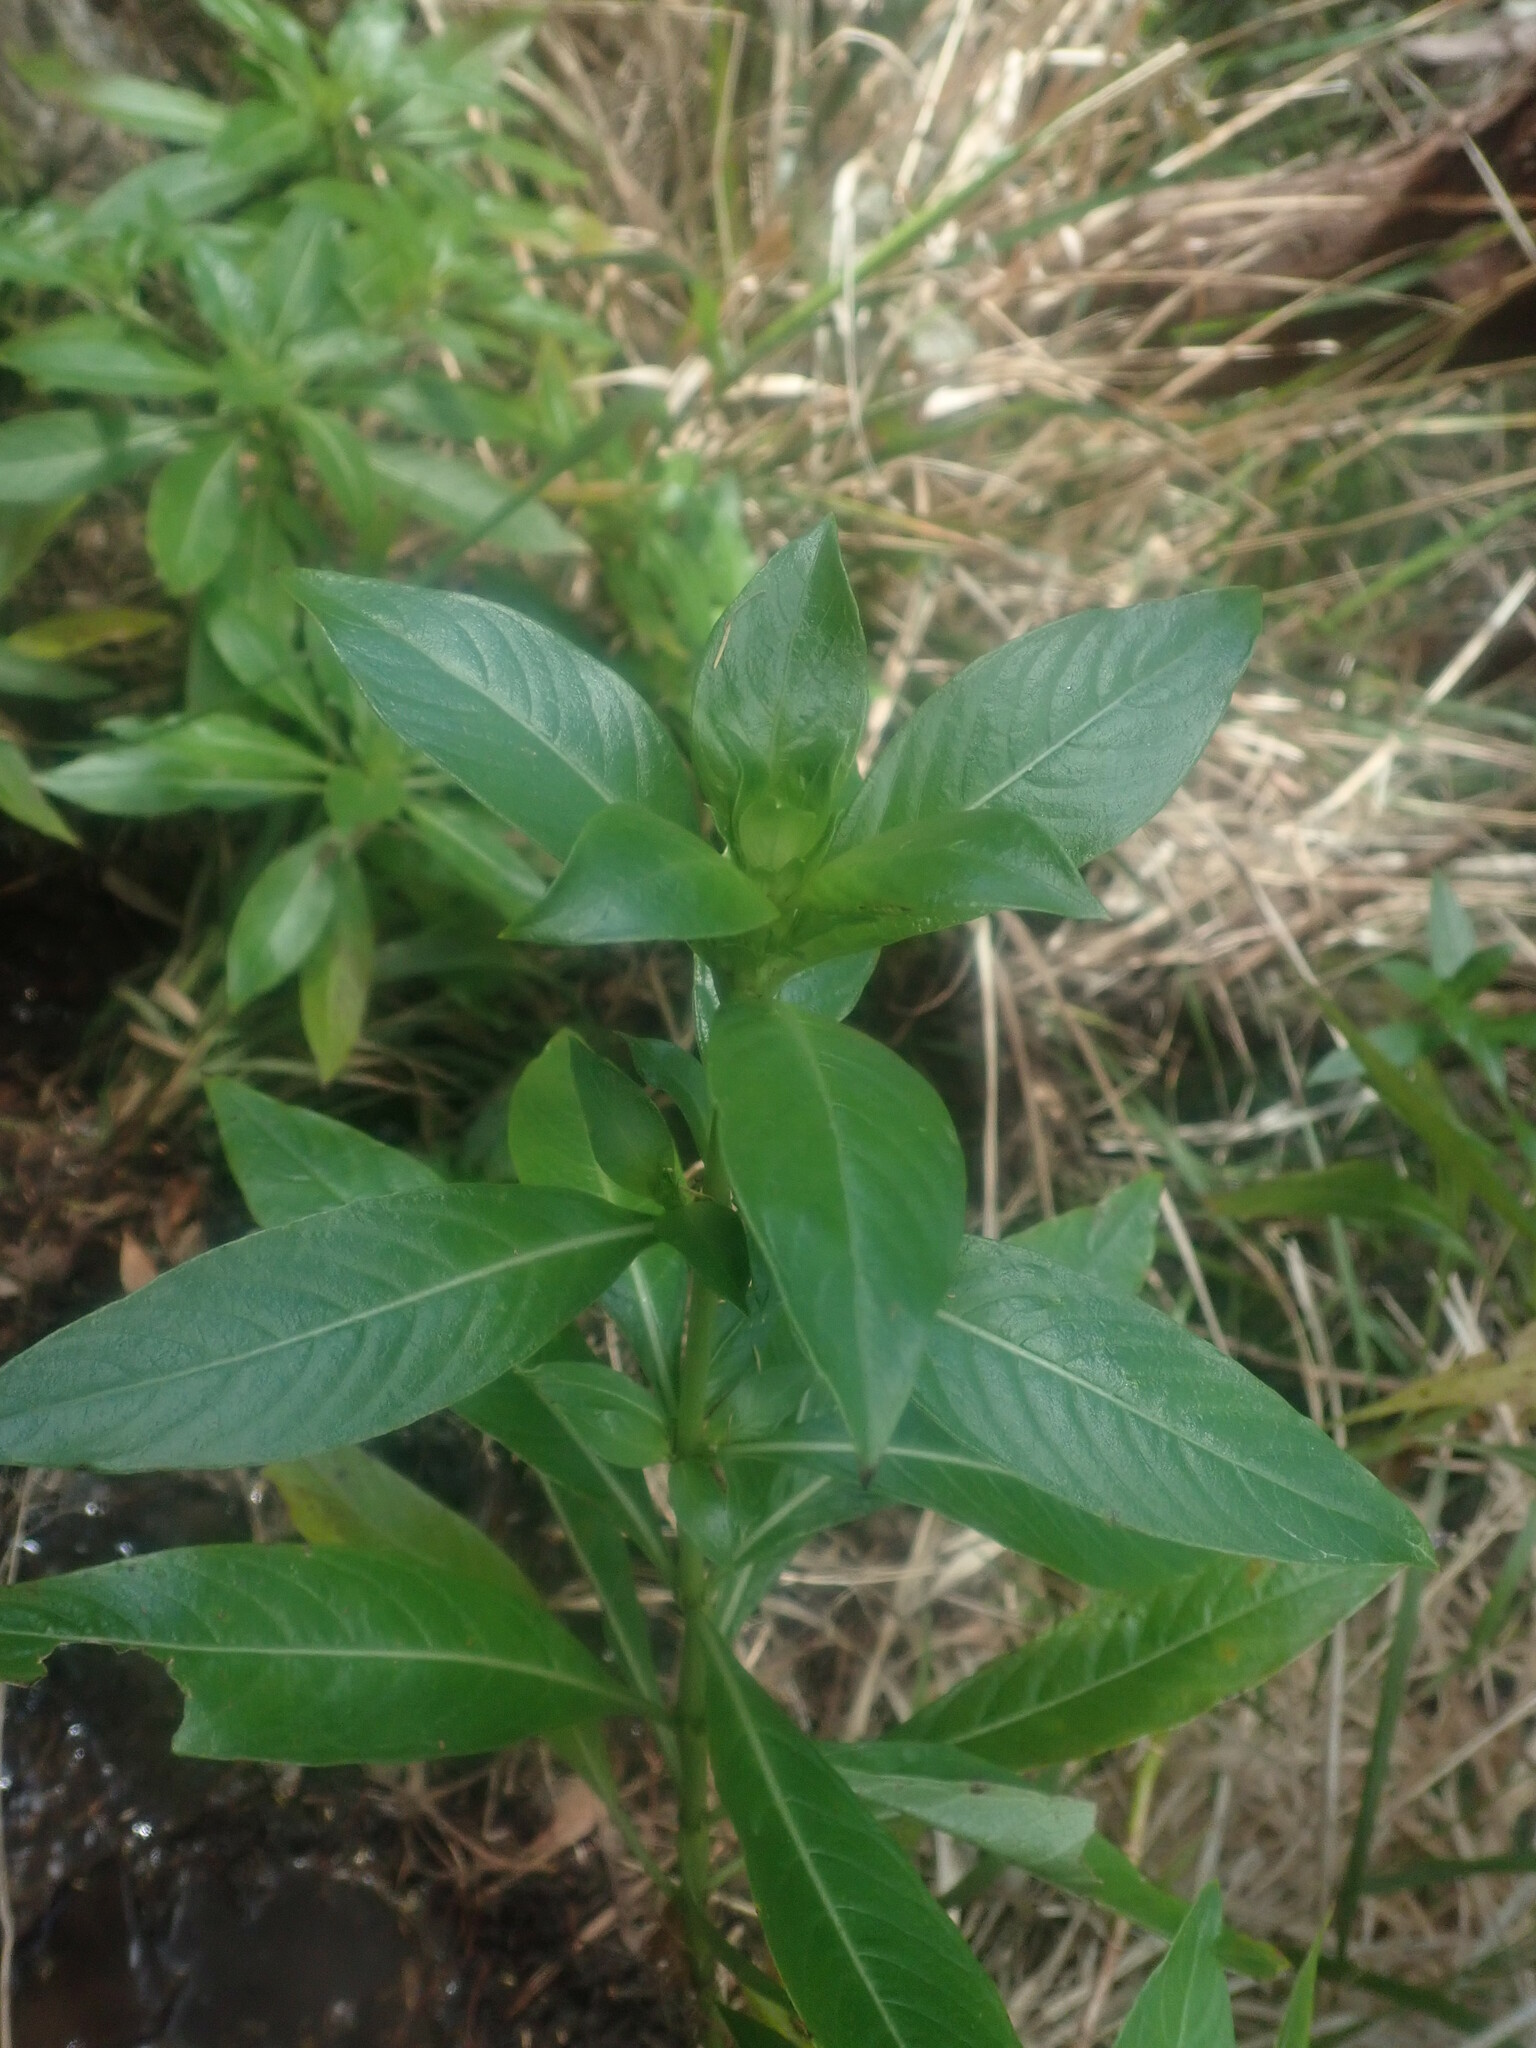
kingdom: Plantae
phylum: Tracheophyta
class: Magnoliopsida
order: Gentianales
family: Rubiaceae
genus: Phyllis
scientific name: Phyllis nobla
